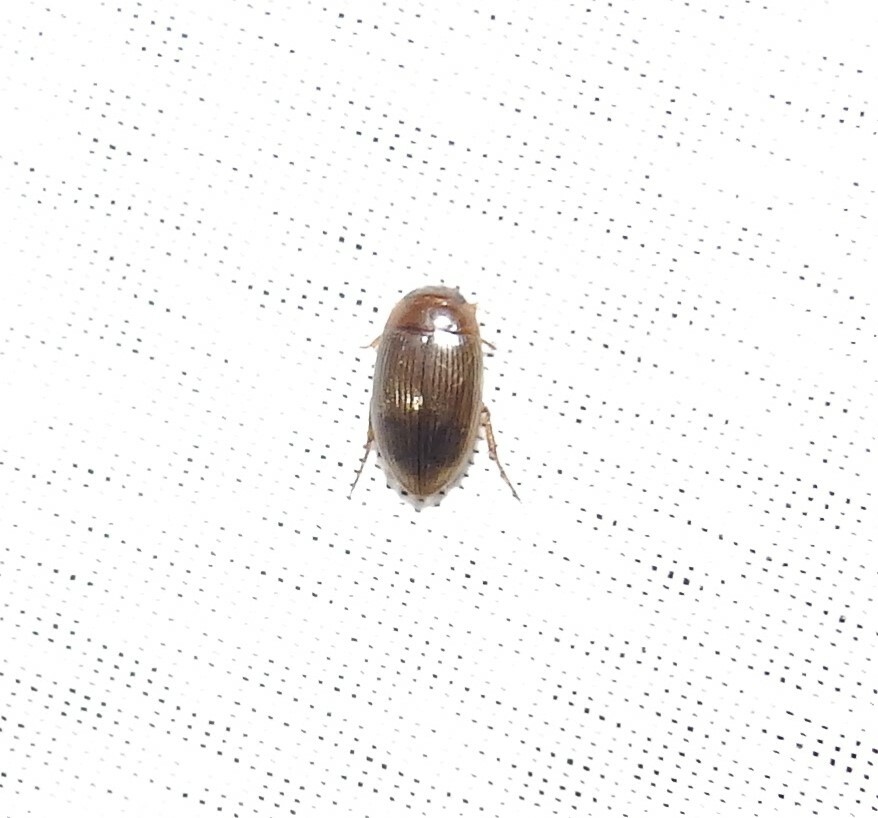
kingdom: Animalia
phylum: Arthropoda
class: Insecta
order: Coleoptera
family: Dytiscidae
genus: Copelatus
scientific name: Copelatus glyphicus
